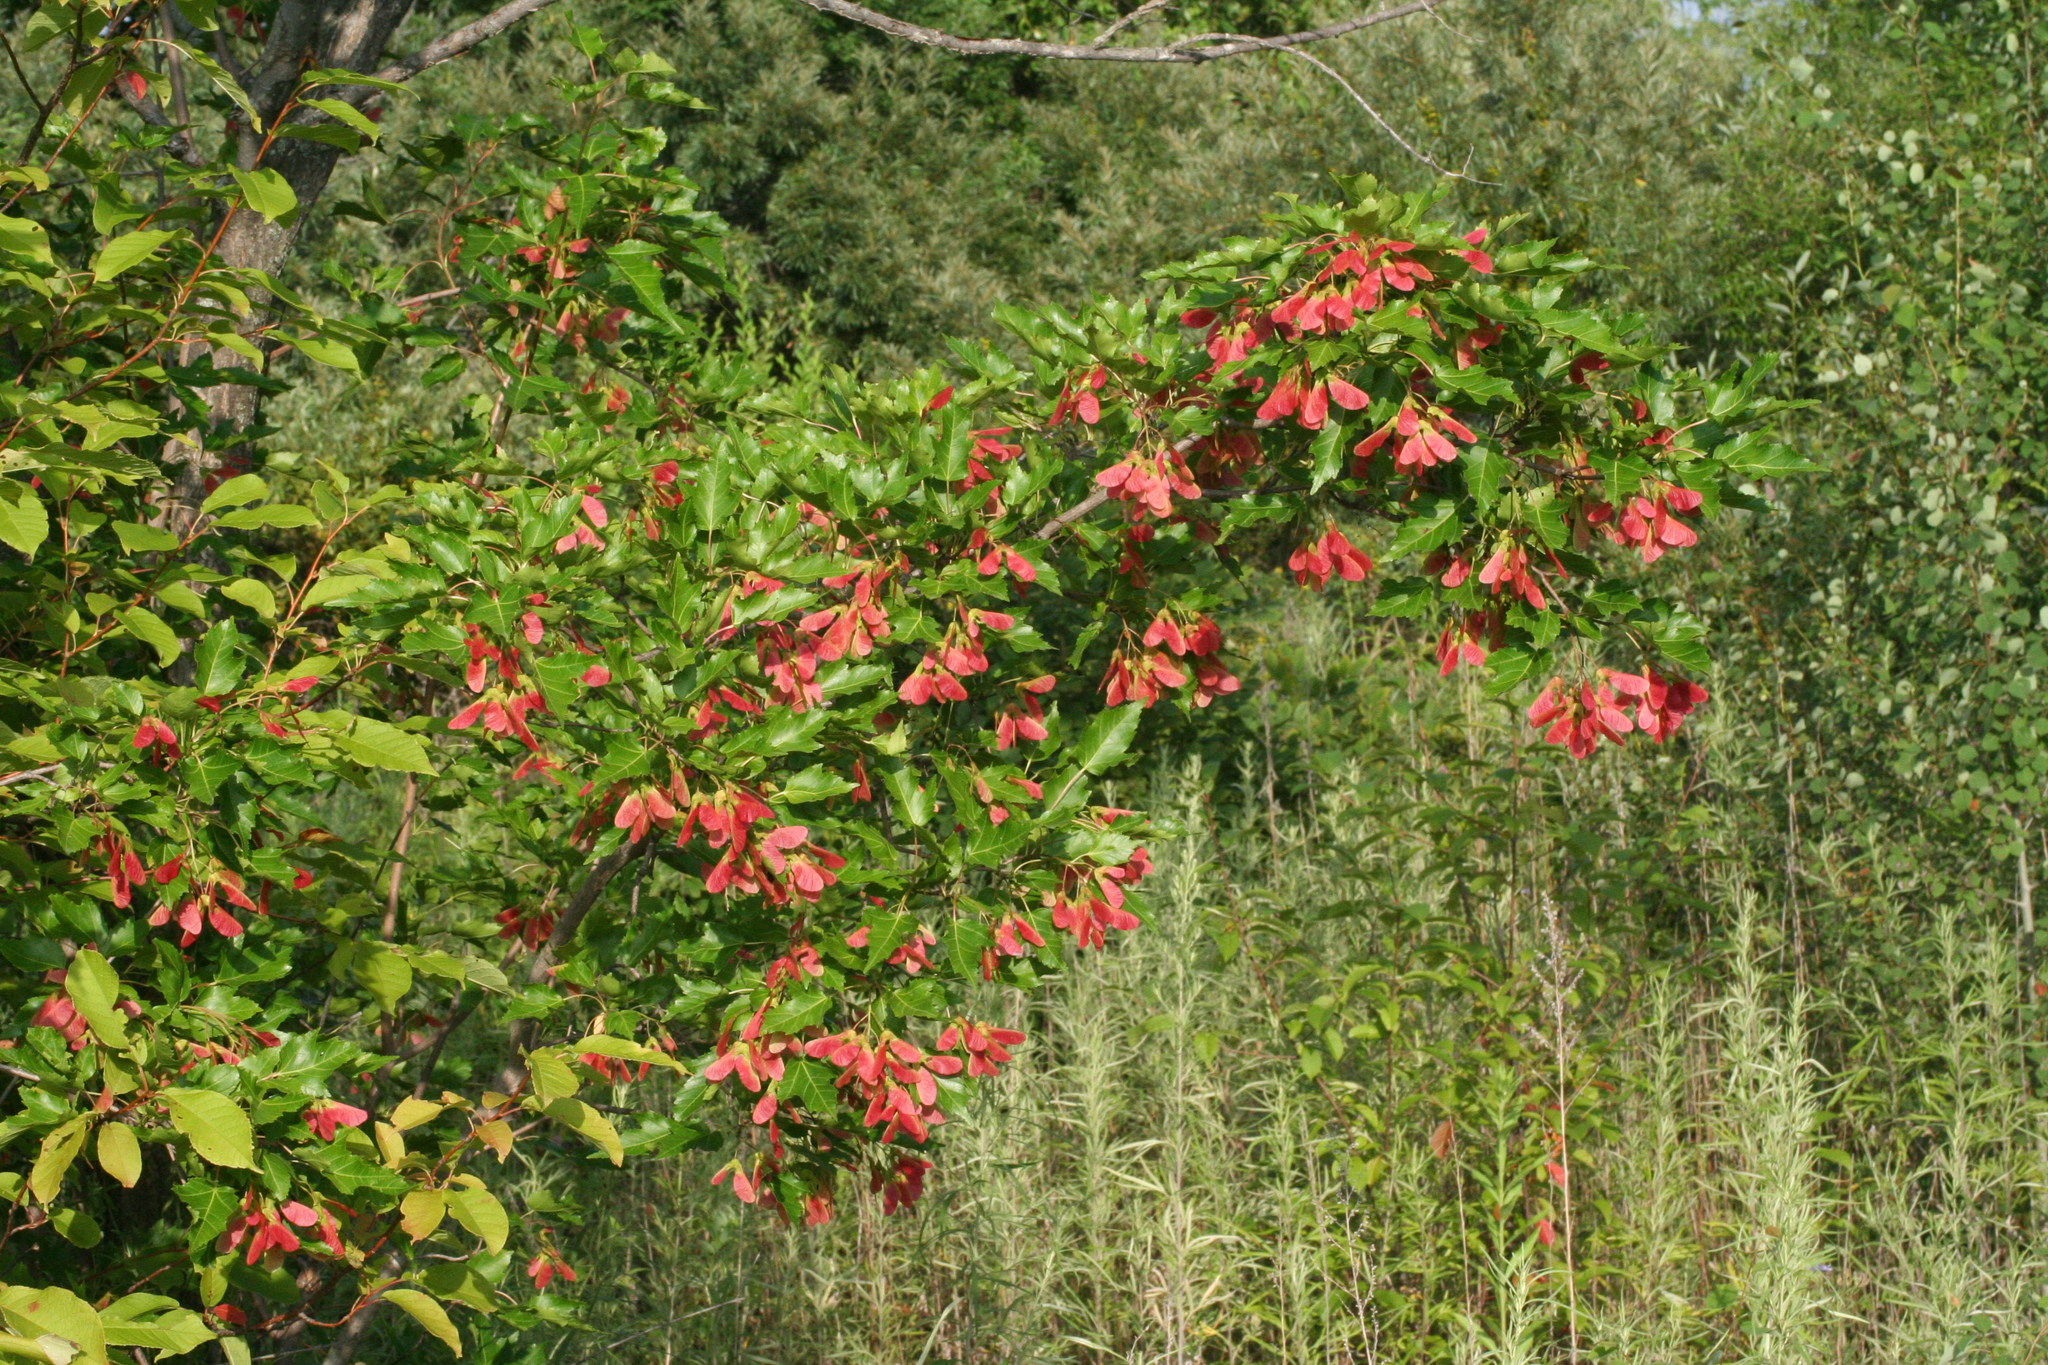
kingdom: Plantae
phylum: Tracheophyta
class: Magnoliopsida
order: Sapindales
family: Sapindaceae
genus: Acer
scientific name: Acer tataricum
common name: Tartar maple
